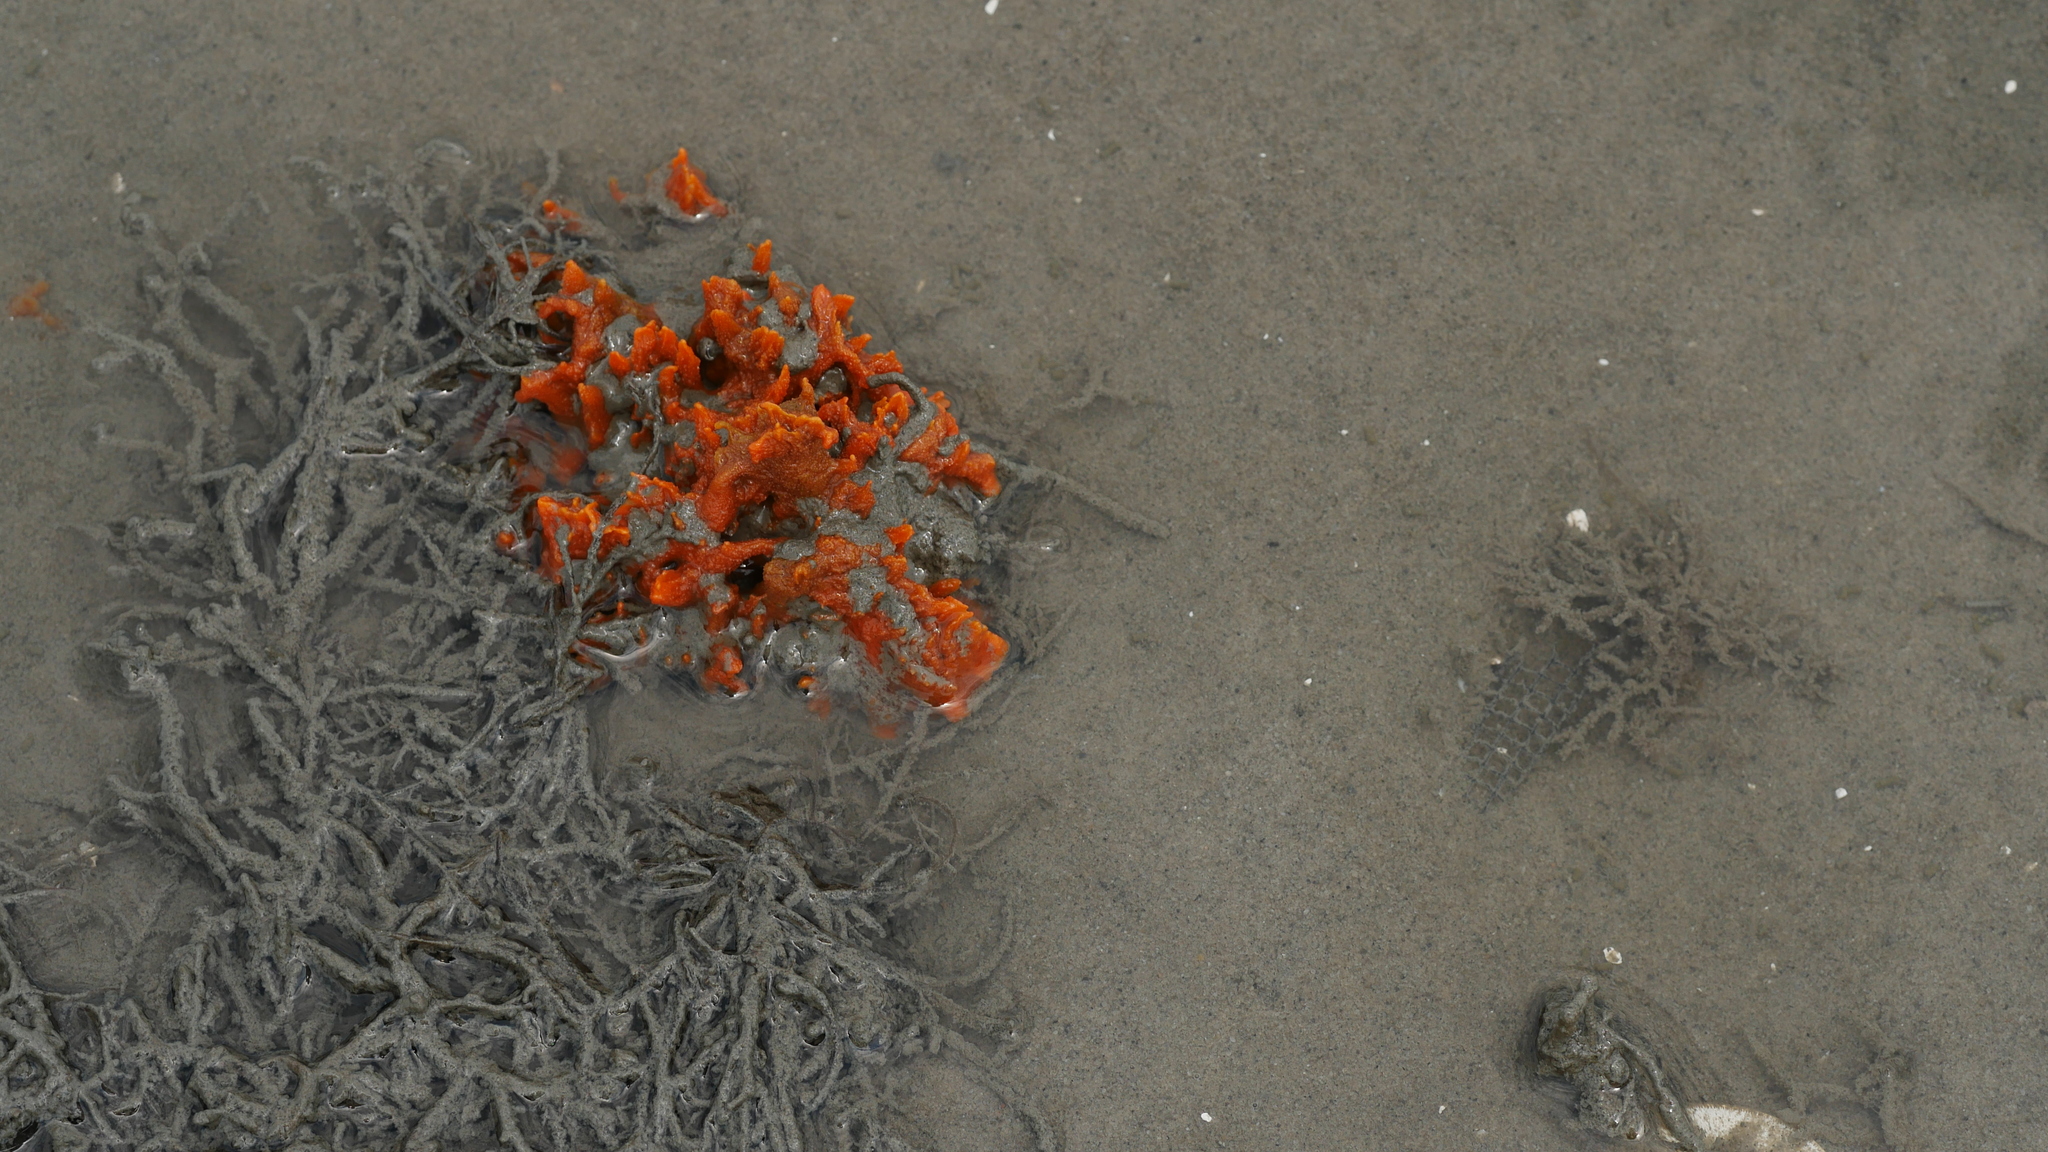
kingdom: Animalia
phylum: Porifera
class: Demospongiae
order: Suberitida
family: Halichondriidae
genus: Hymeniacidon
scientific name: Hymeniacidon heliophila
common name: Diurnal horny sponge
